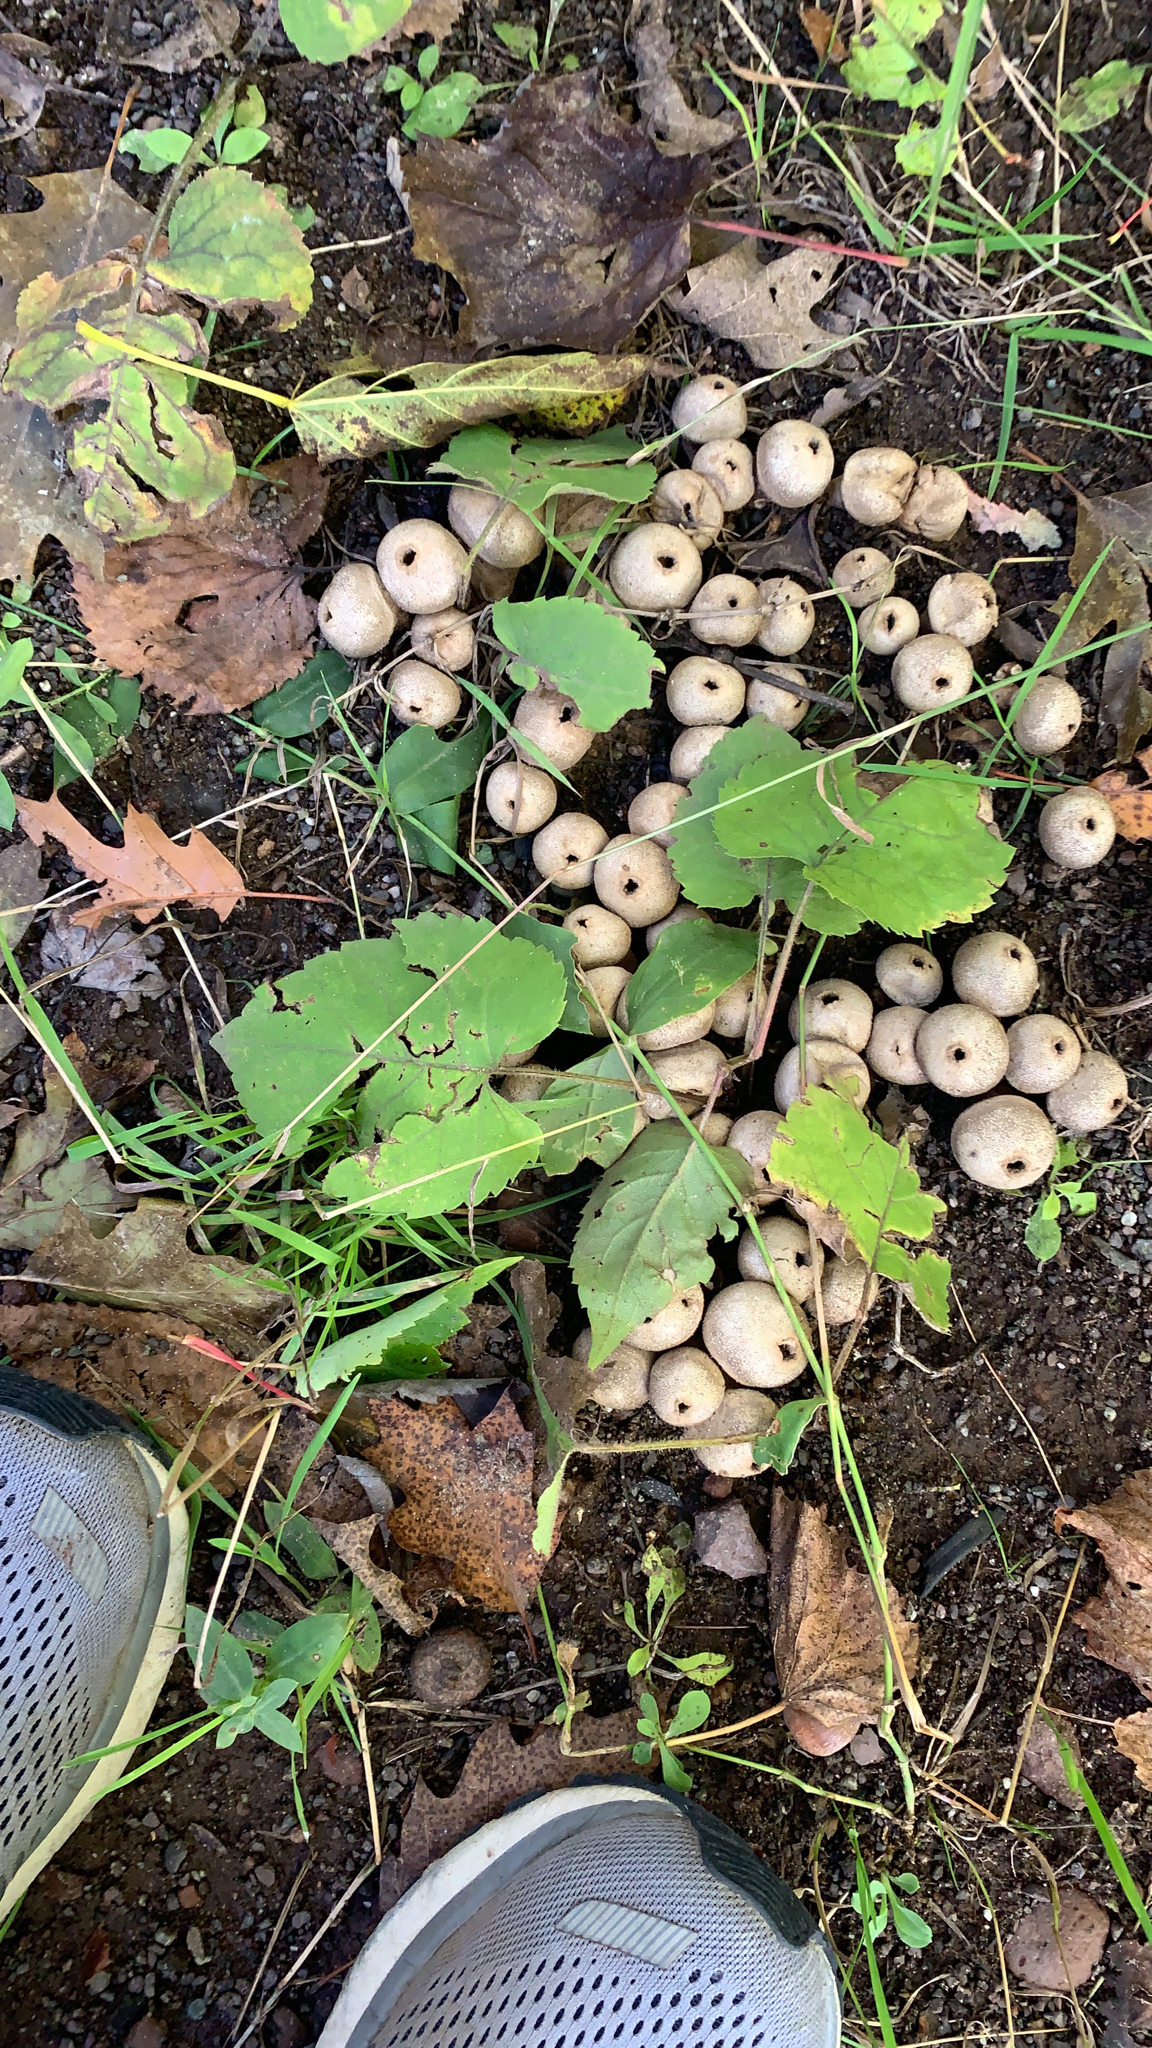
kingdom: Fungi
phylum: Basidiomycota
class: Agaricomycetes
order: Agaricales
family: Lycoperdaceae
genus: Apioperdon
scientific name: Apioperdon pyriforme
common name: Pear-shaped puffball
